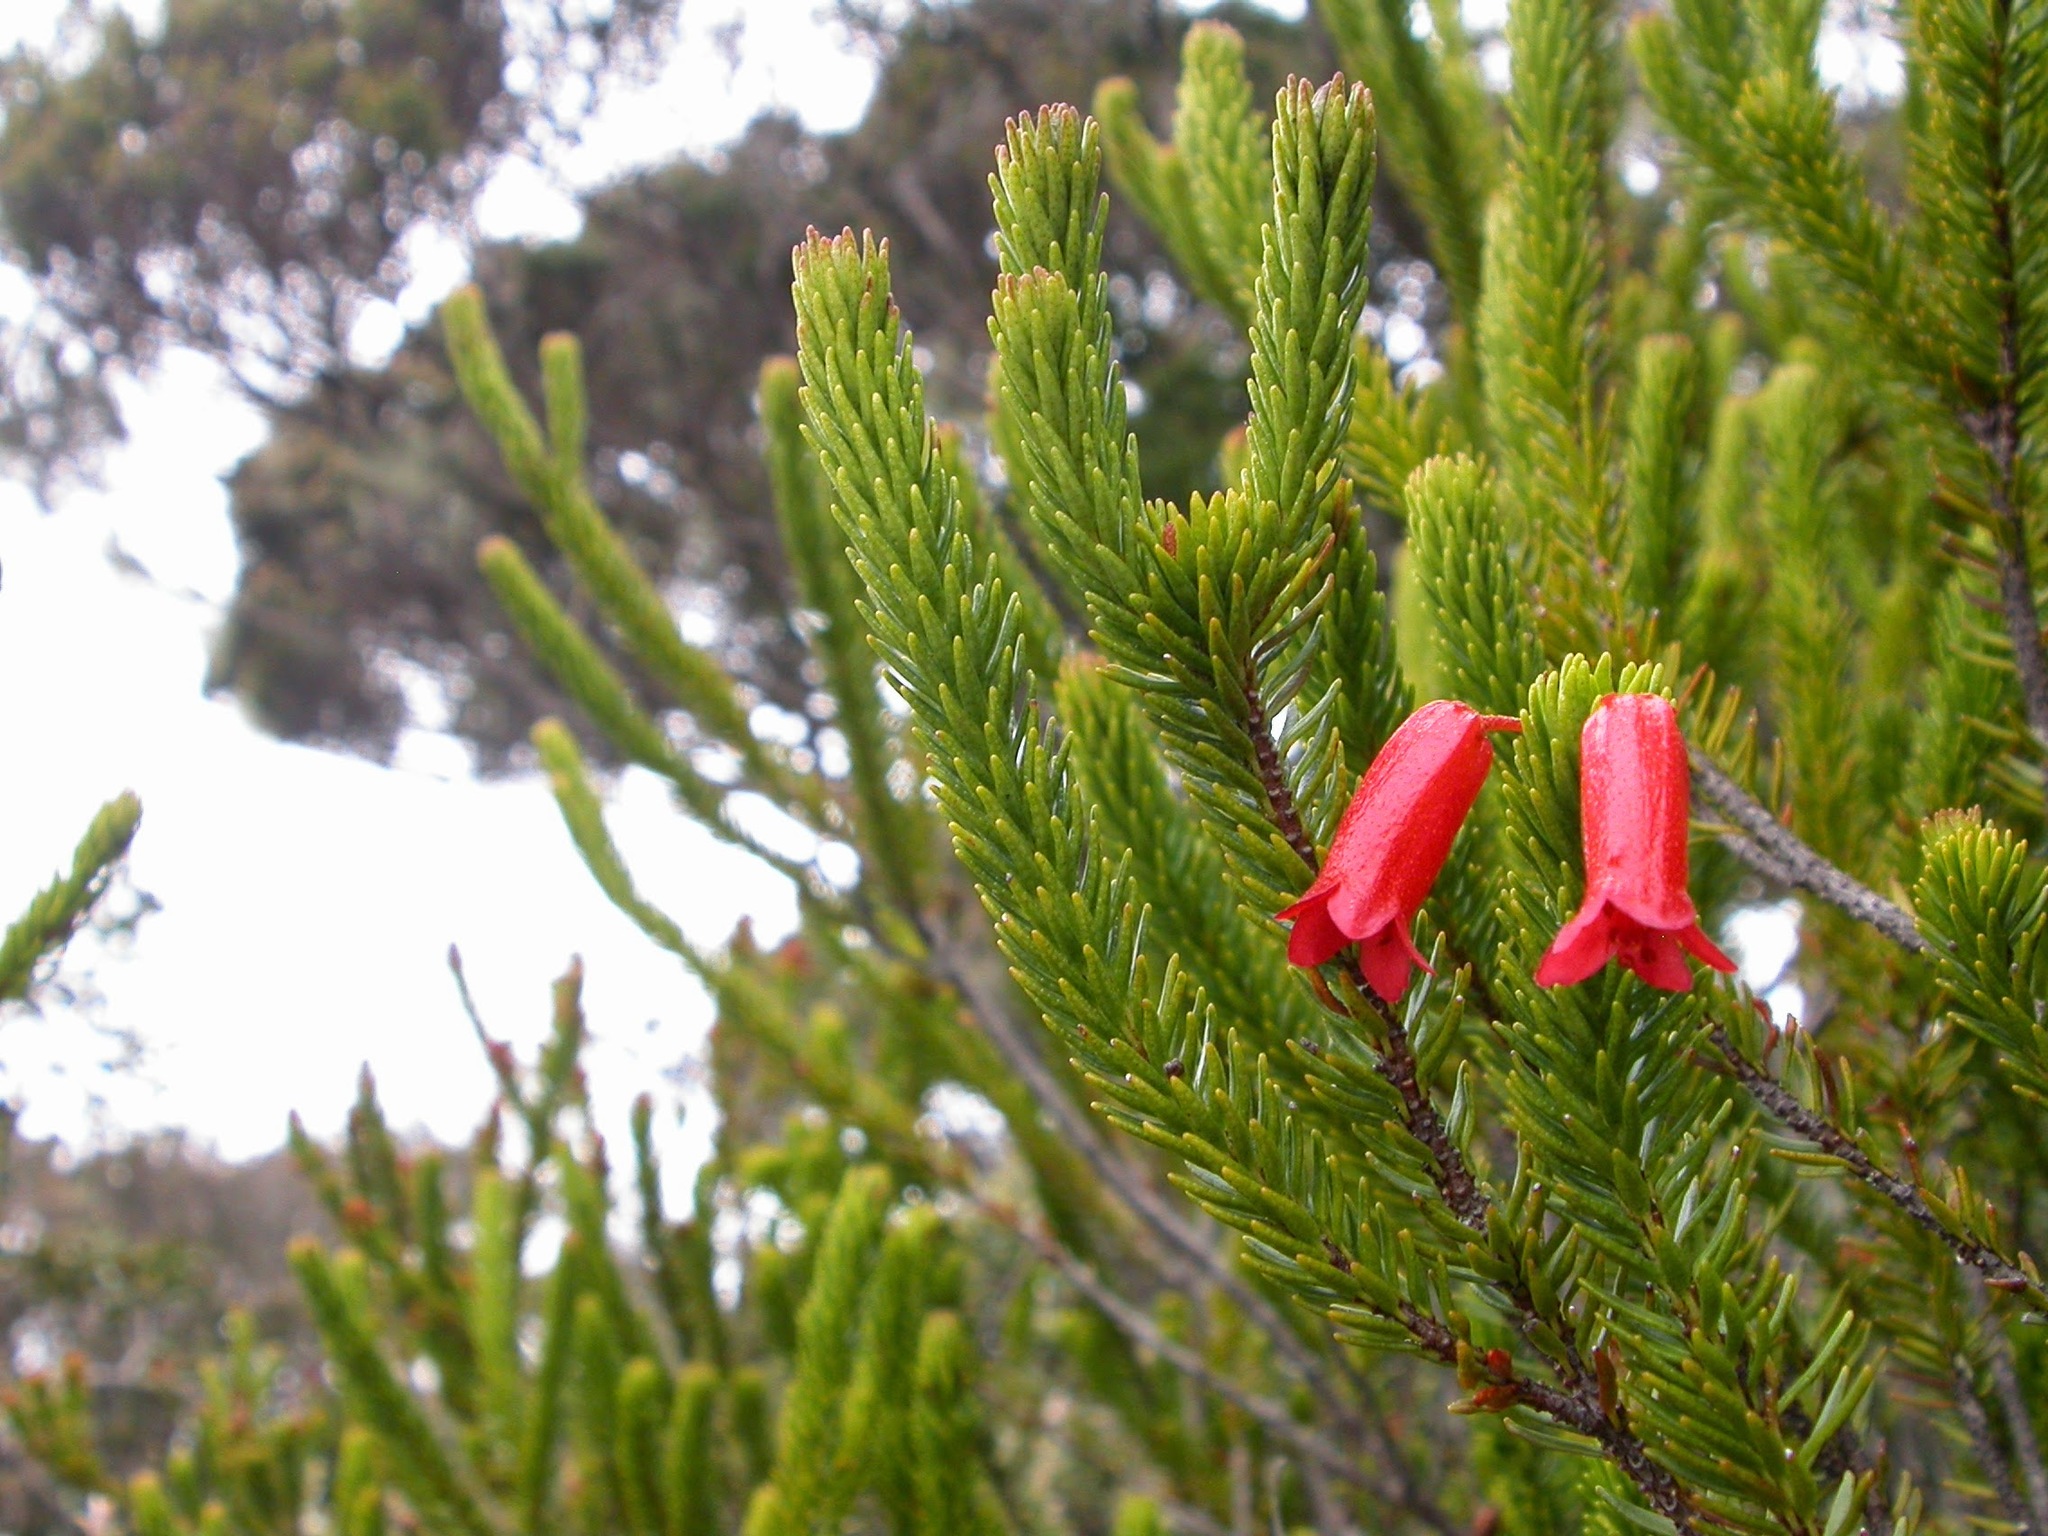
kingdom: Plantae
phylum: Tracheophyta
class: Magnoliopsida
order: Ericales
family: Ericaceae
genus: Rhododendron
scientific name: Rhododendron ericoides
